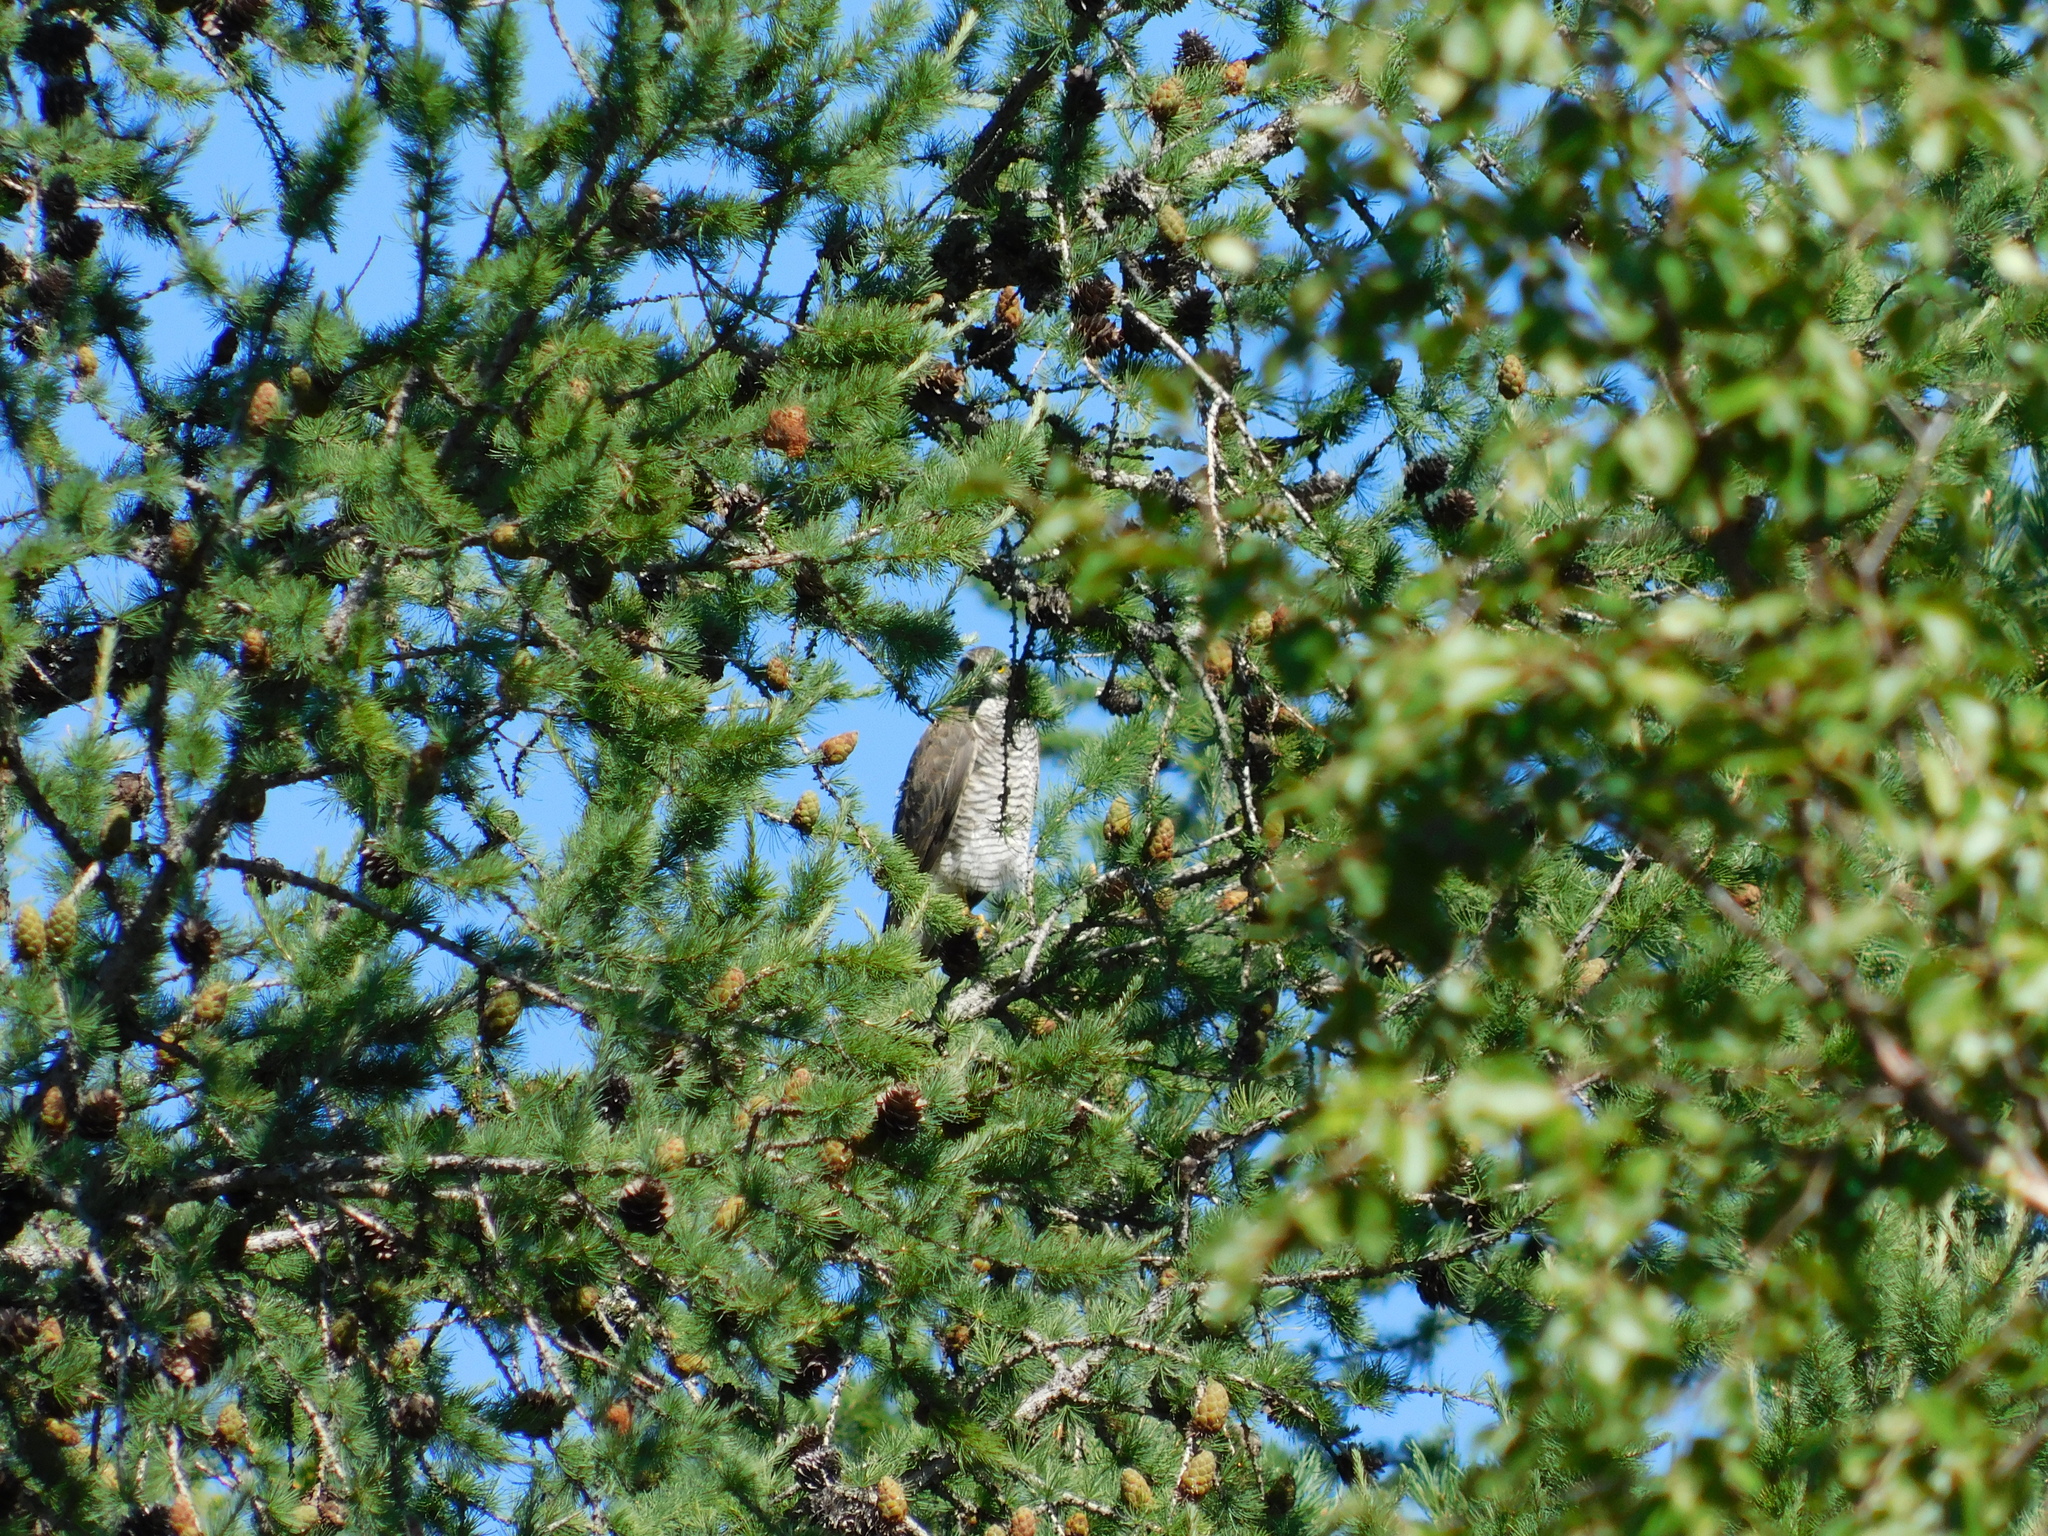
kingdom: Animalia
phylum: Chordata
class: Aves
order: Accipitriformes
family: Accipitridae
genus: Accipiter
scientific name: Accipiter nisus
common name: Eurasian sparrowhawk
